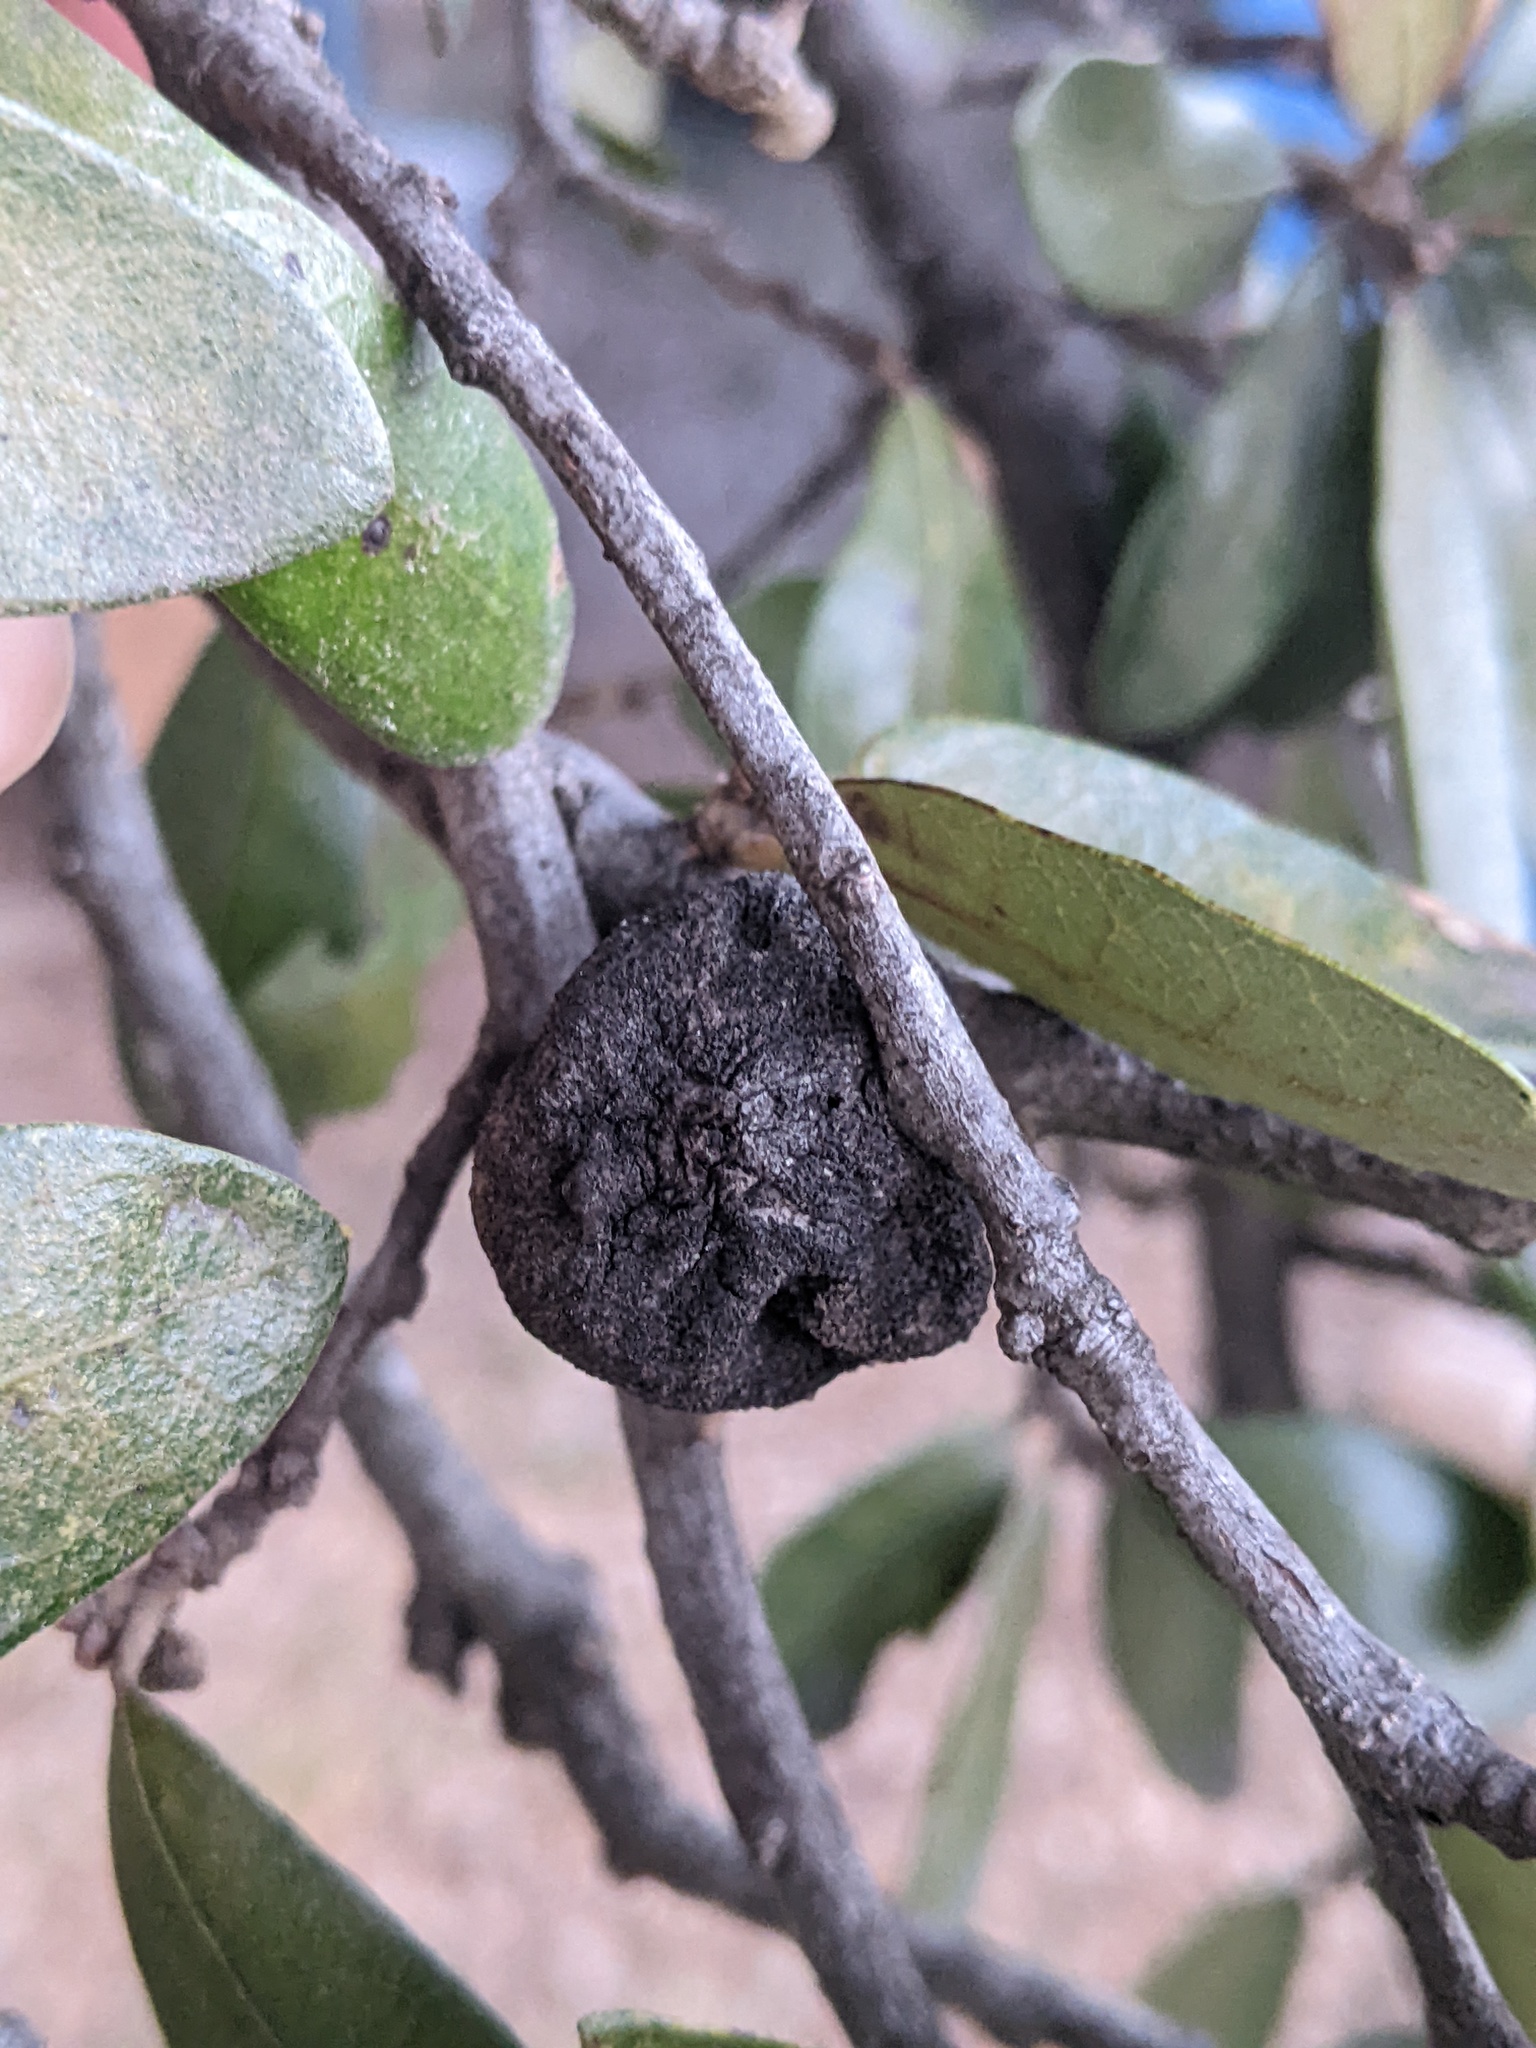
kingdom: Animalia
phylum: Arthropoda
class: Insecta
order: Hymenoptera
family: Cynipidae
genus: Disholcaspis
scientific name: Disholcaspis
